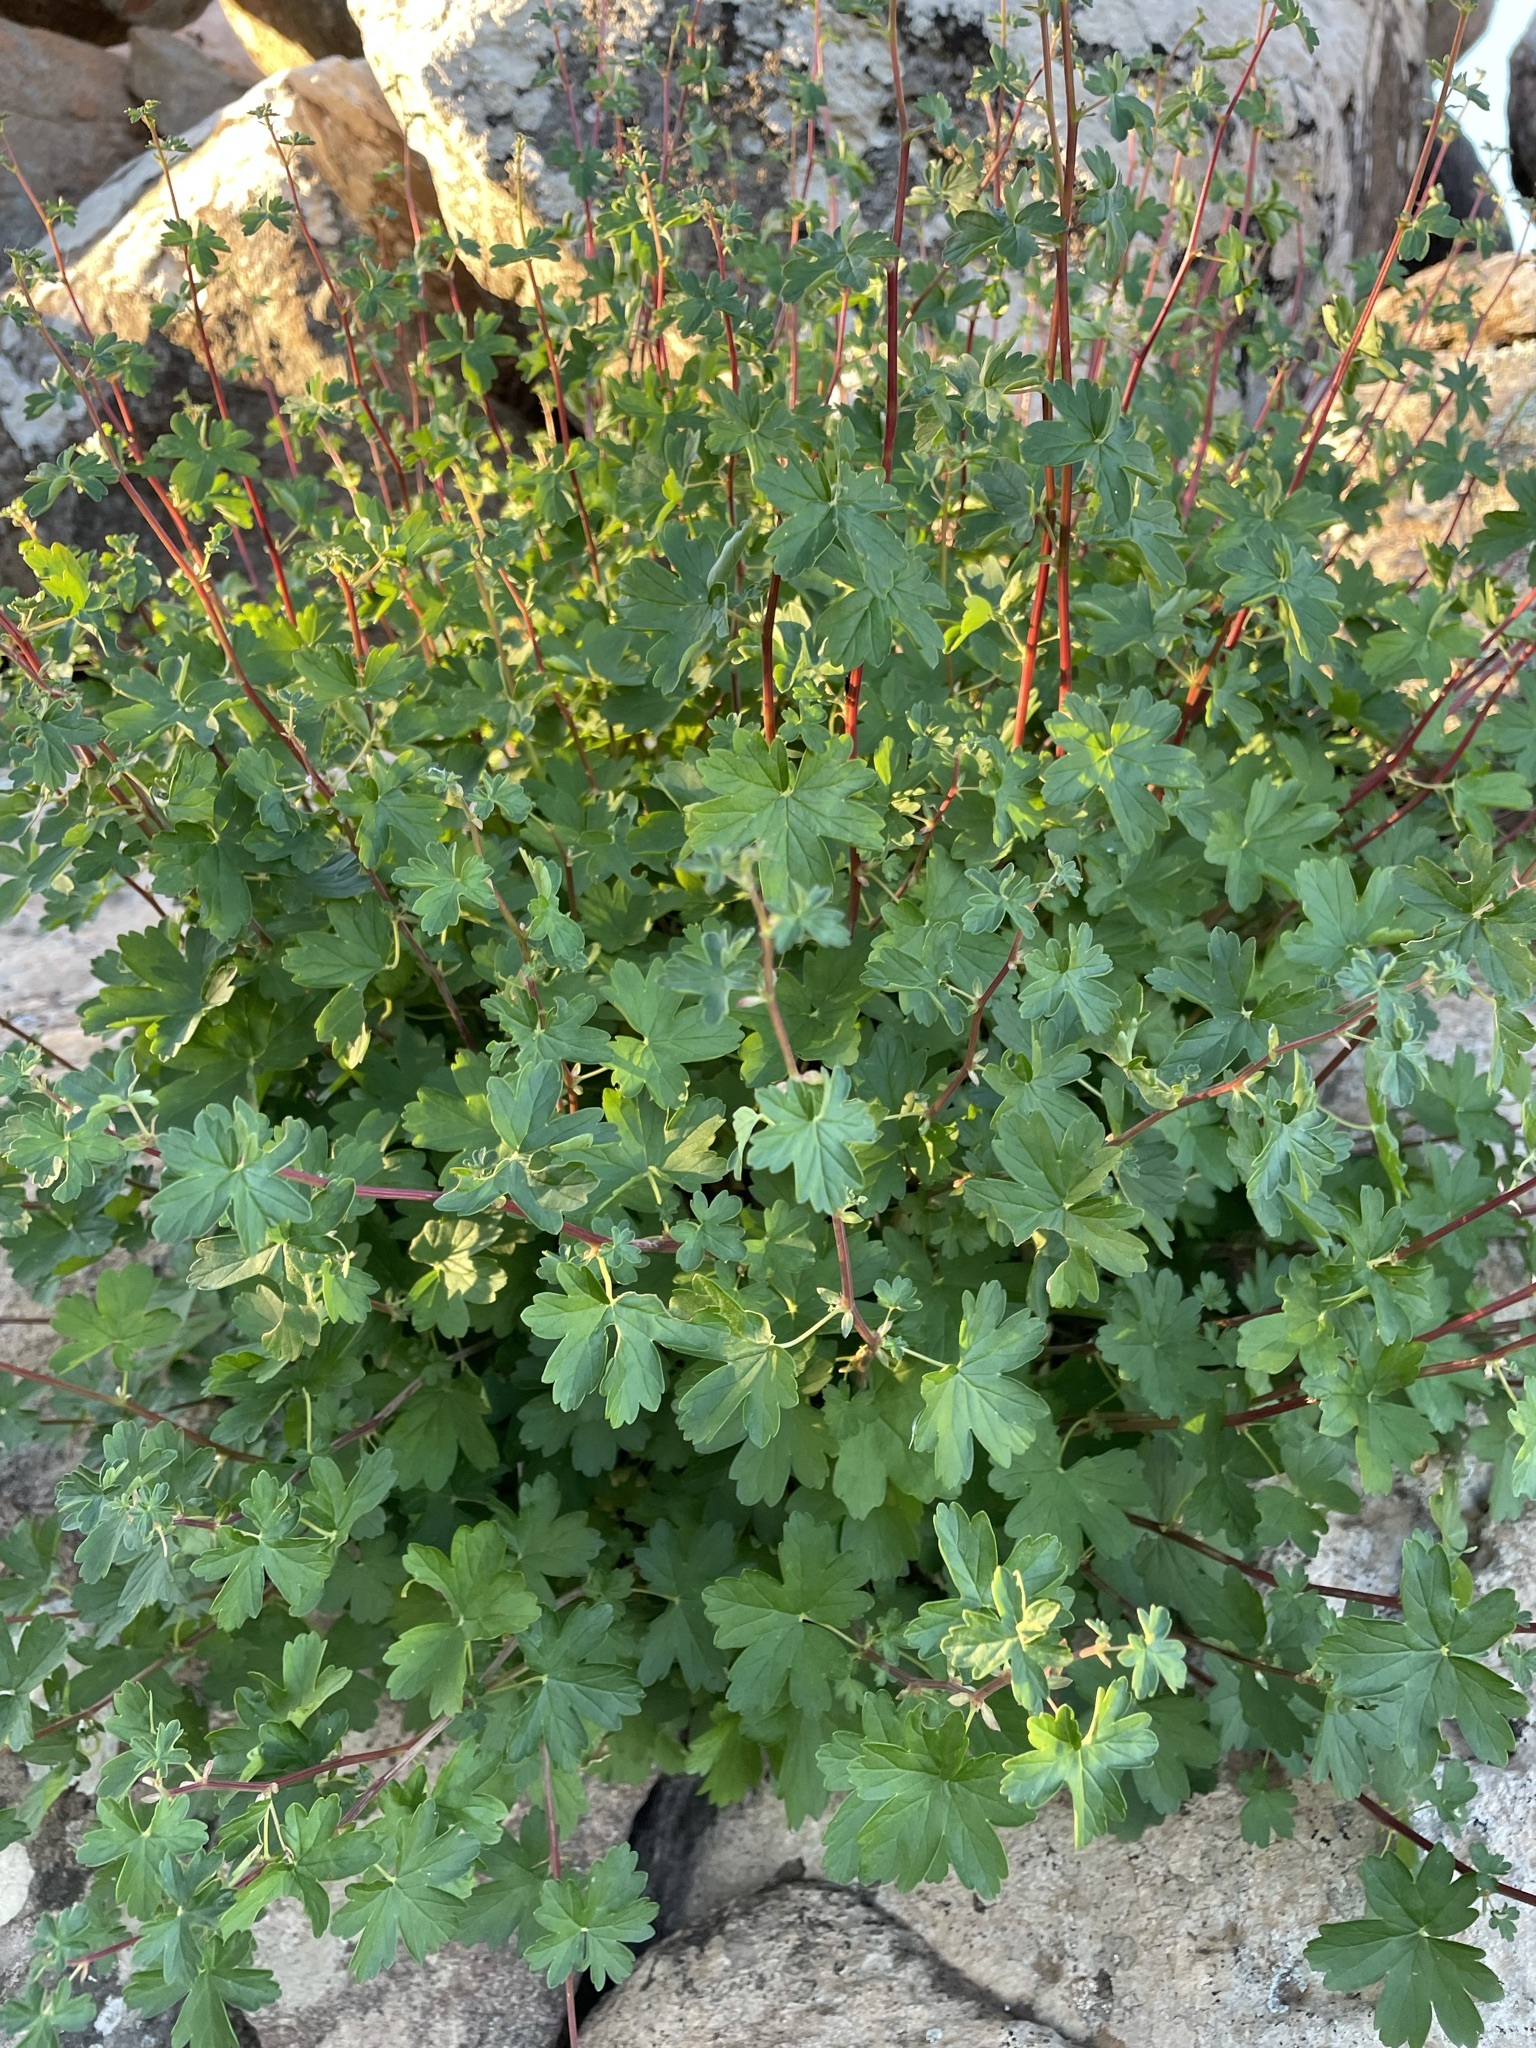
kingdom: Plantae
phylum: Tracheophyta
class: Magnoliopsida
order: Geraniales
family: Geraniaceae
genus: Pelargonium
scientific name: Pelargonium antidysentericum
